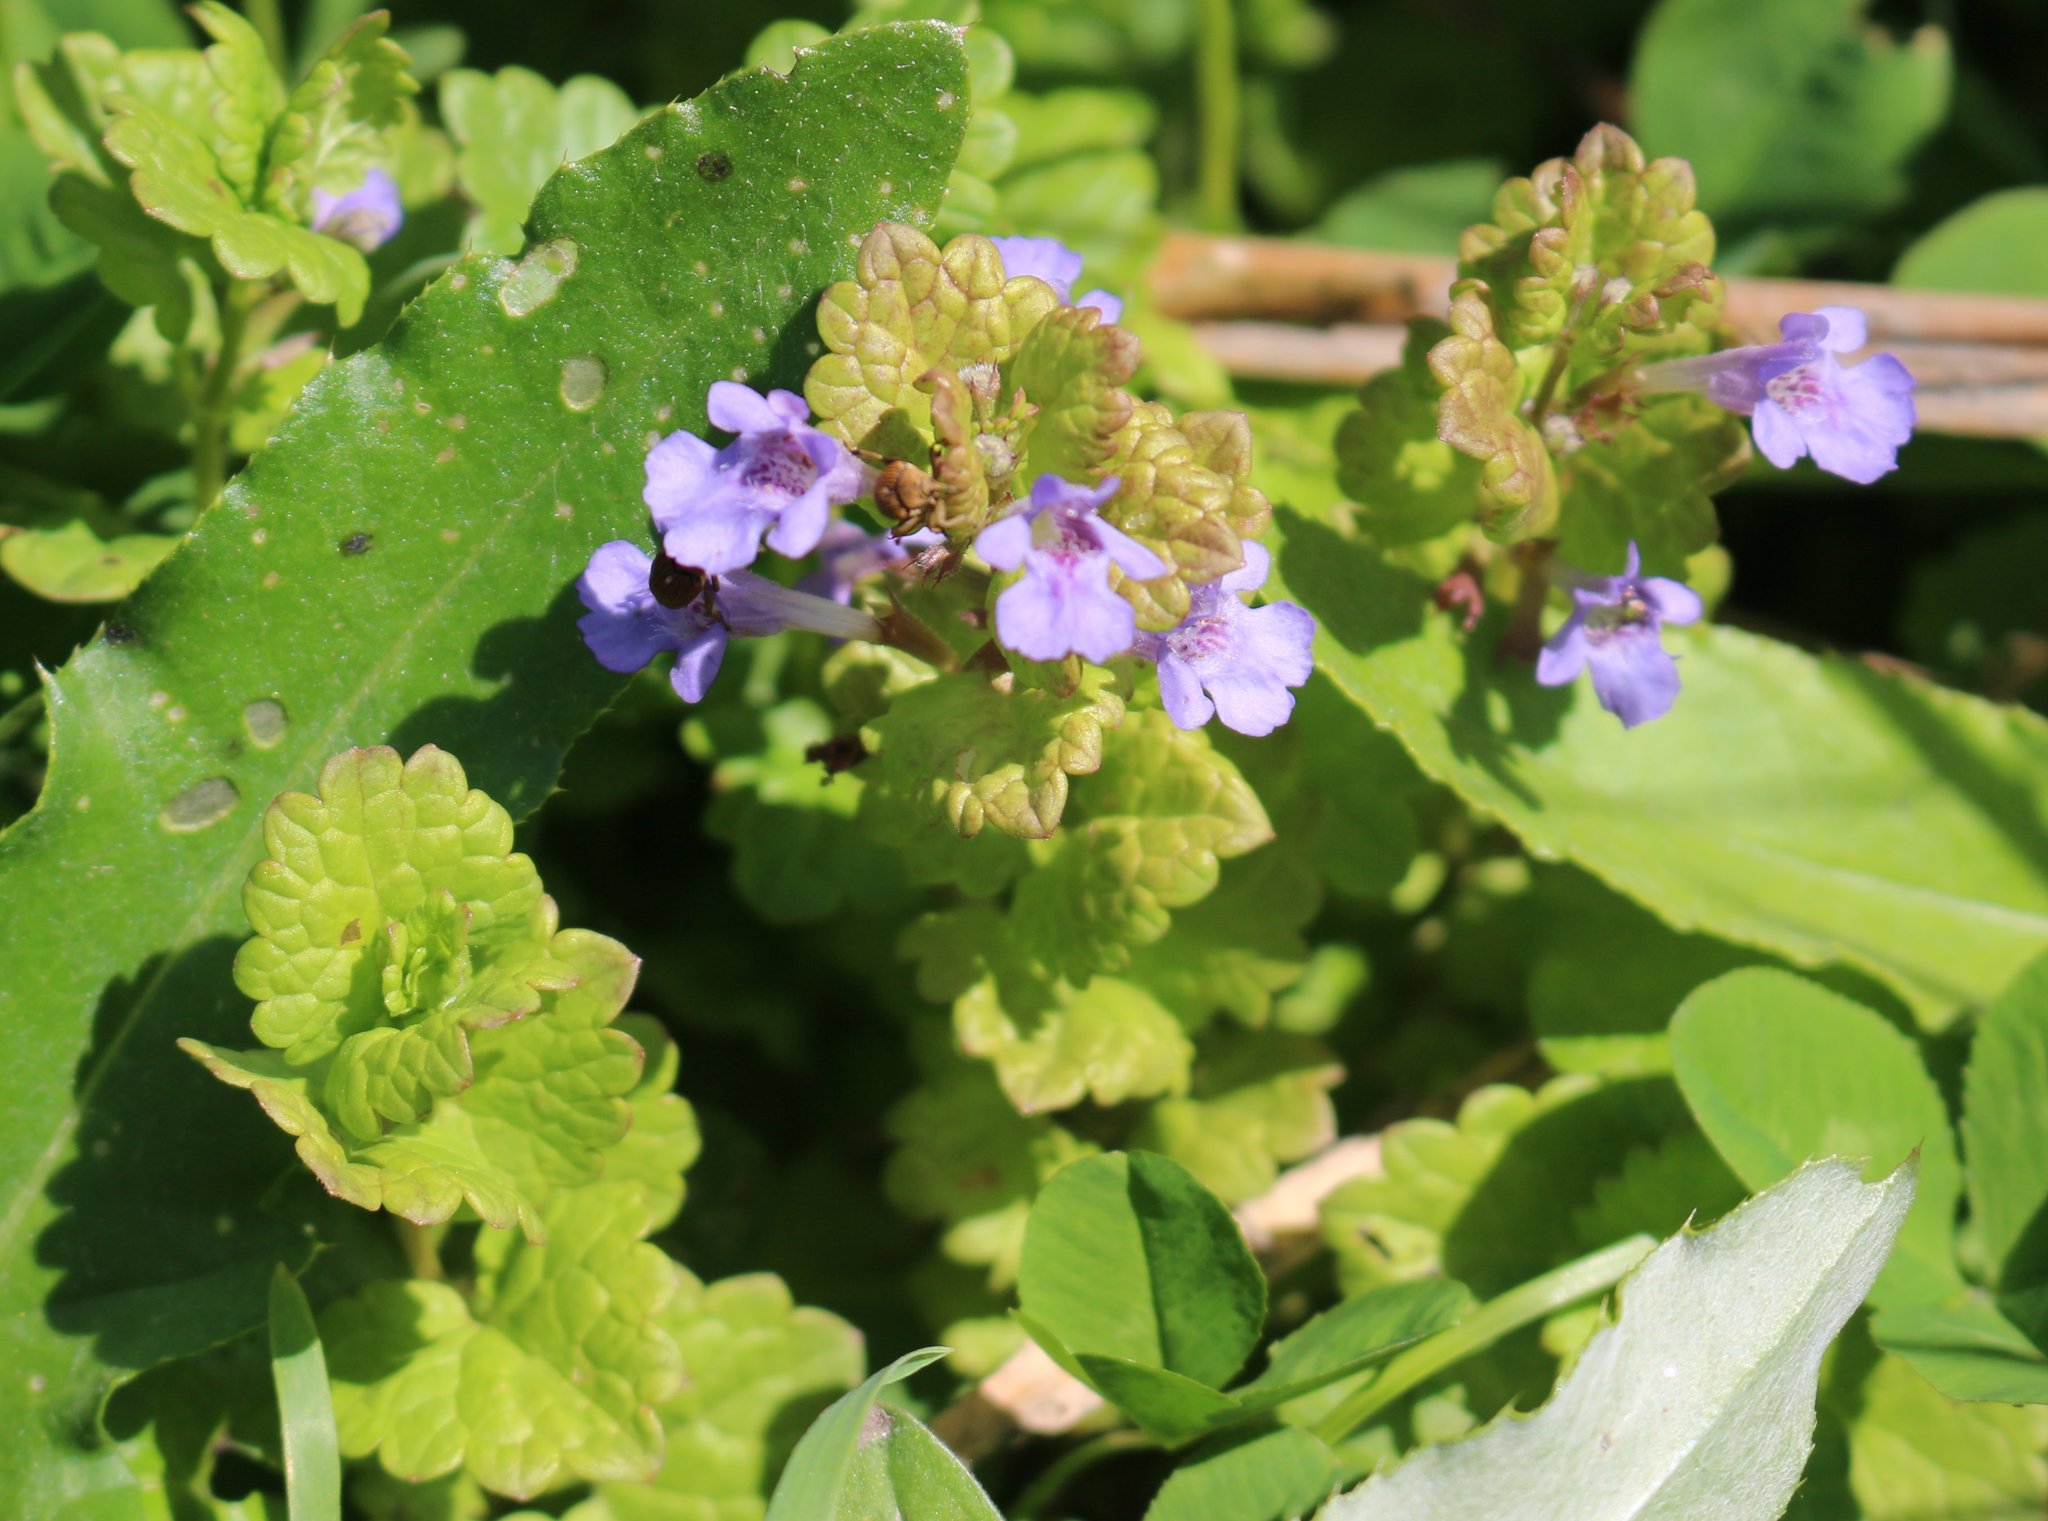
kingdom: Plantae
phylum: Tracheophyta
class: Magnoliopsida
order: Lamiales
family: Lamiaceae
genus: Glechoma
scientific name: Glechoma hederacea
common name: Ground ivy
